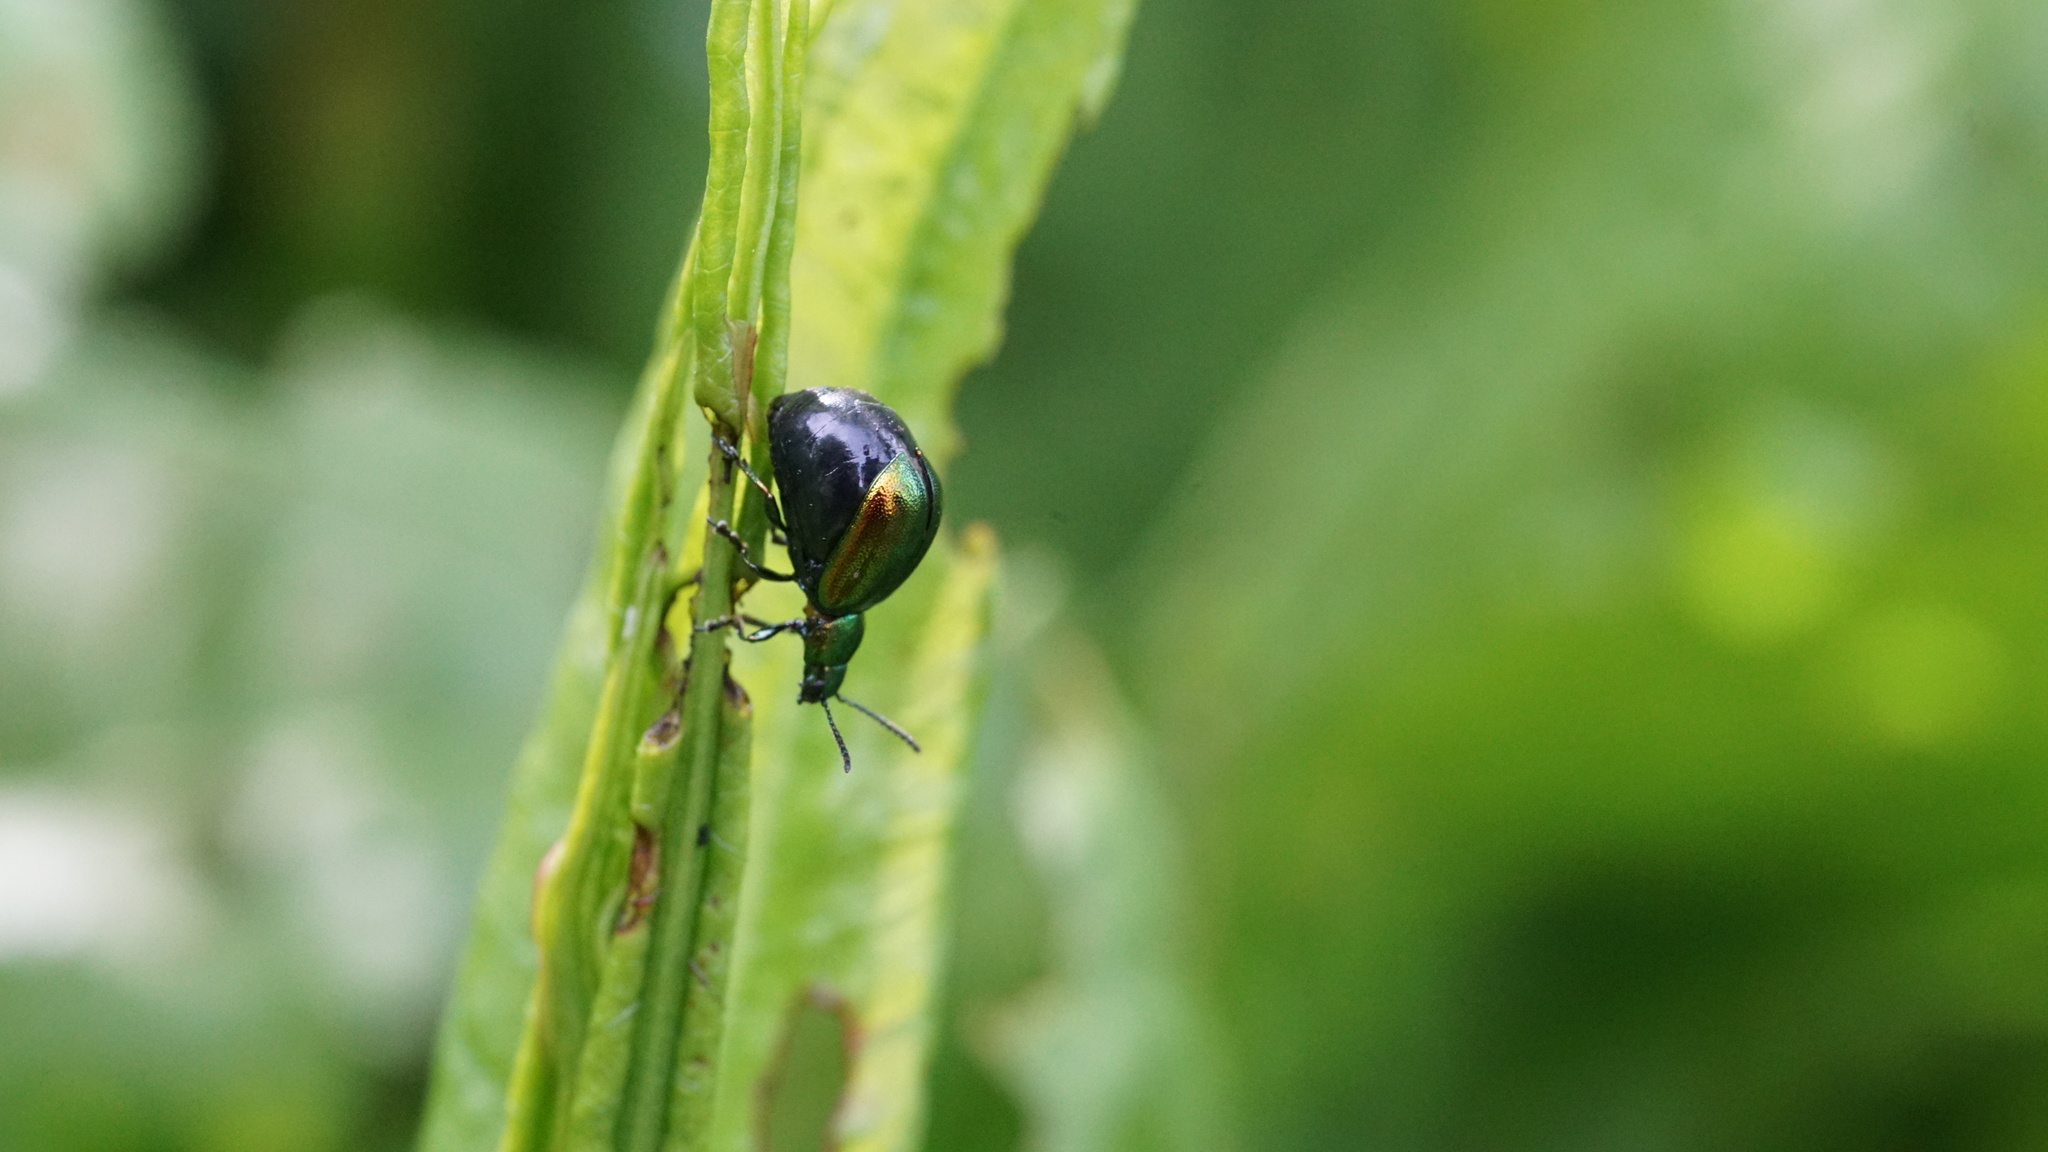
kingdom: Animalia
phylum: Arthropoda
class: Insecta
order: Coleoptera
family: Chrysomelidae
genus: Gastrophysa
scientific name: Gastrophysa viridula
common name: Green dock beetle
